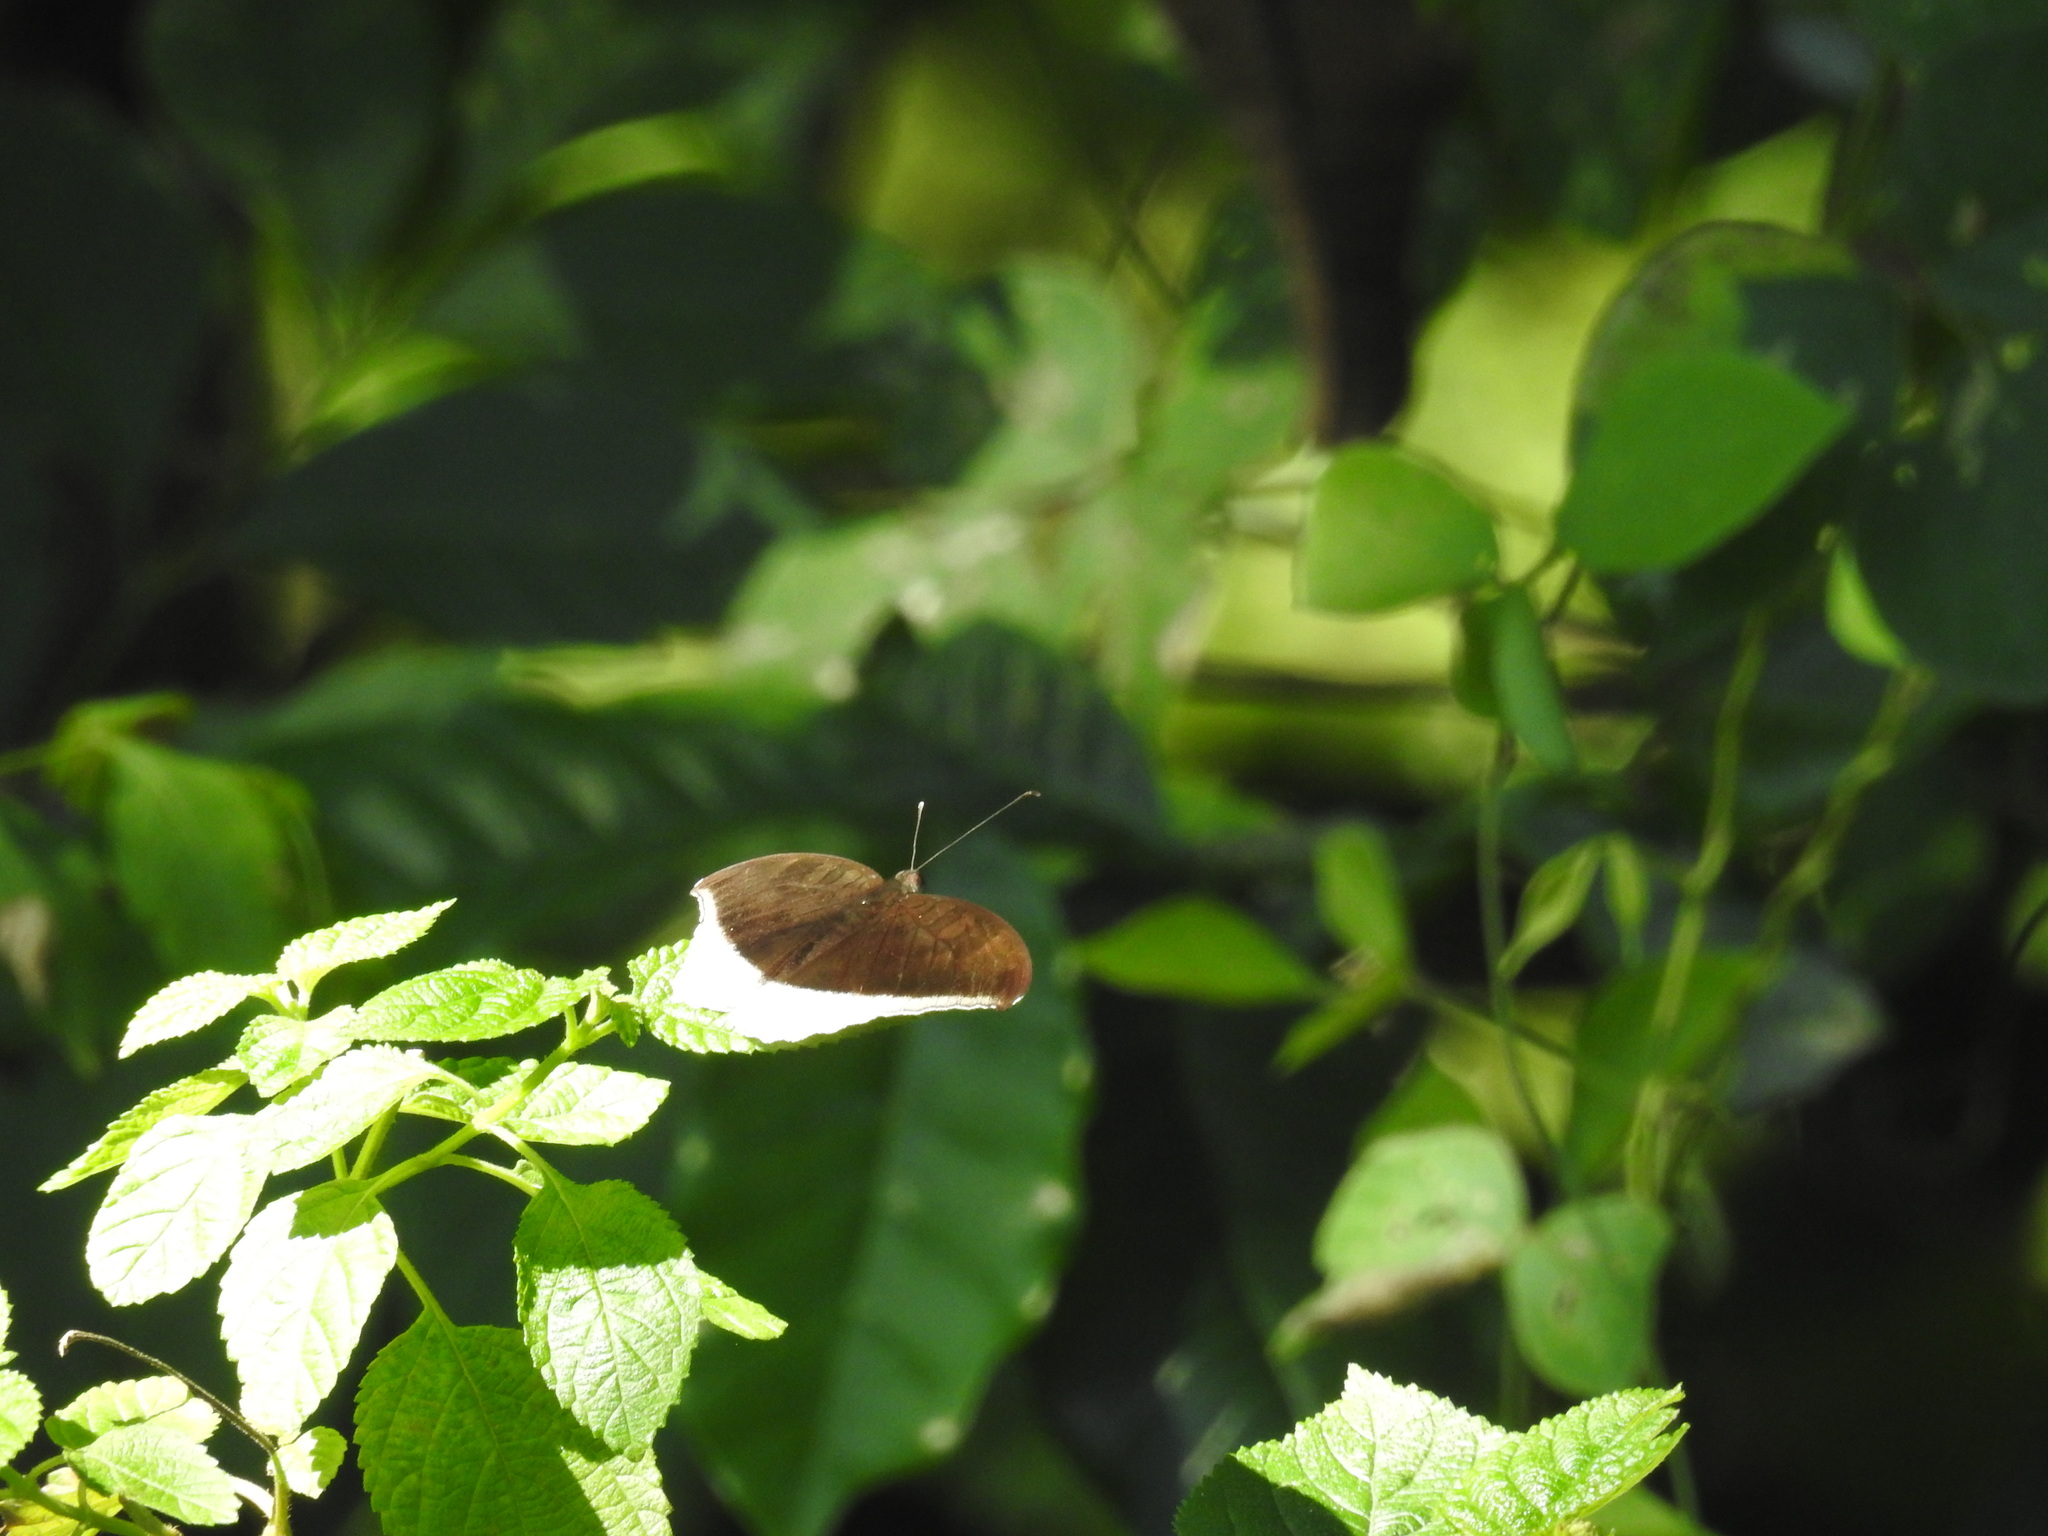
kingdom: Animalia
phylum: Arthropoda
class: Insecta
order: Lepidoptera
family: Nymphalidae
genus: Tanaecia
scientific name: Tanaecia lepidea
